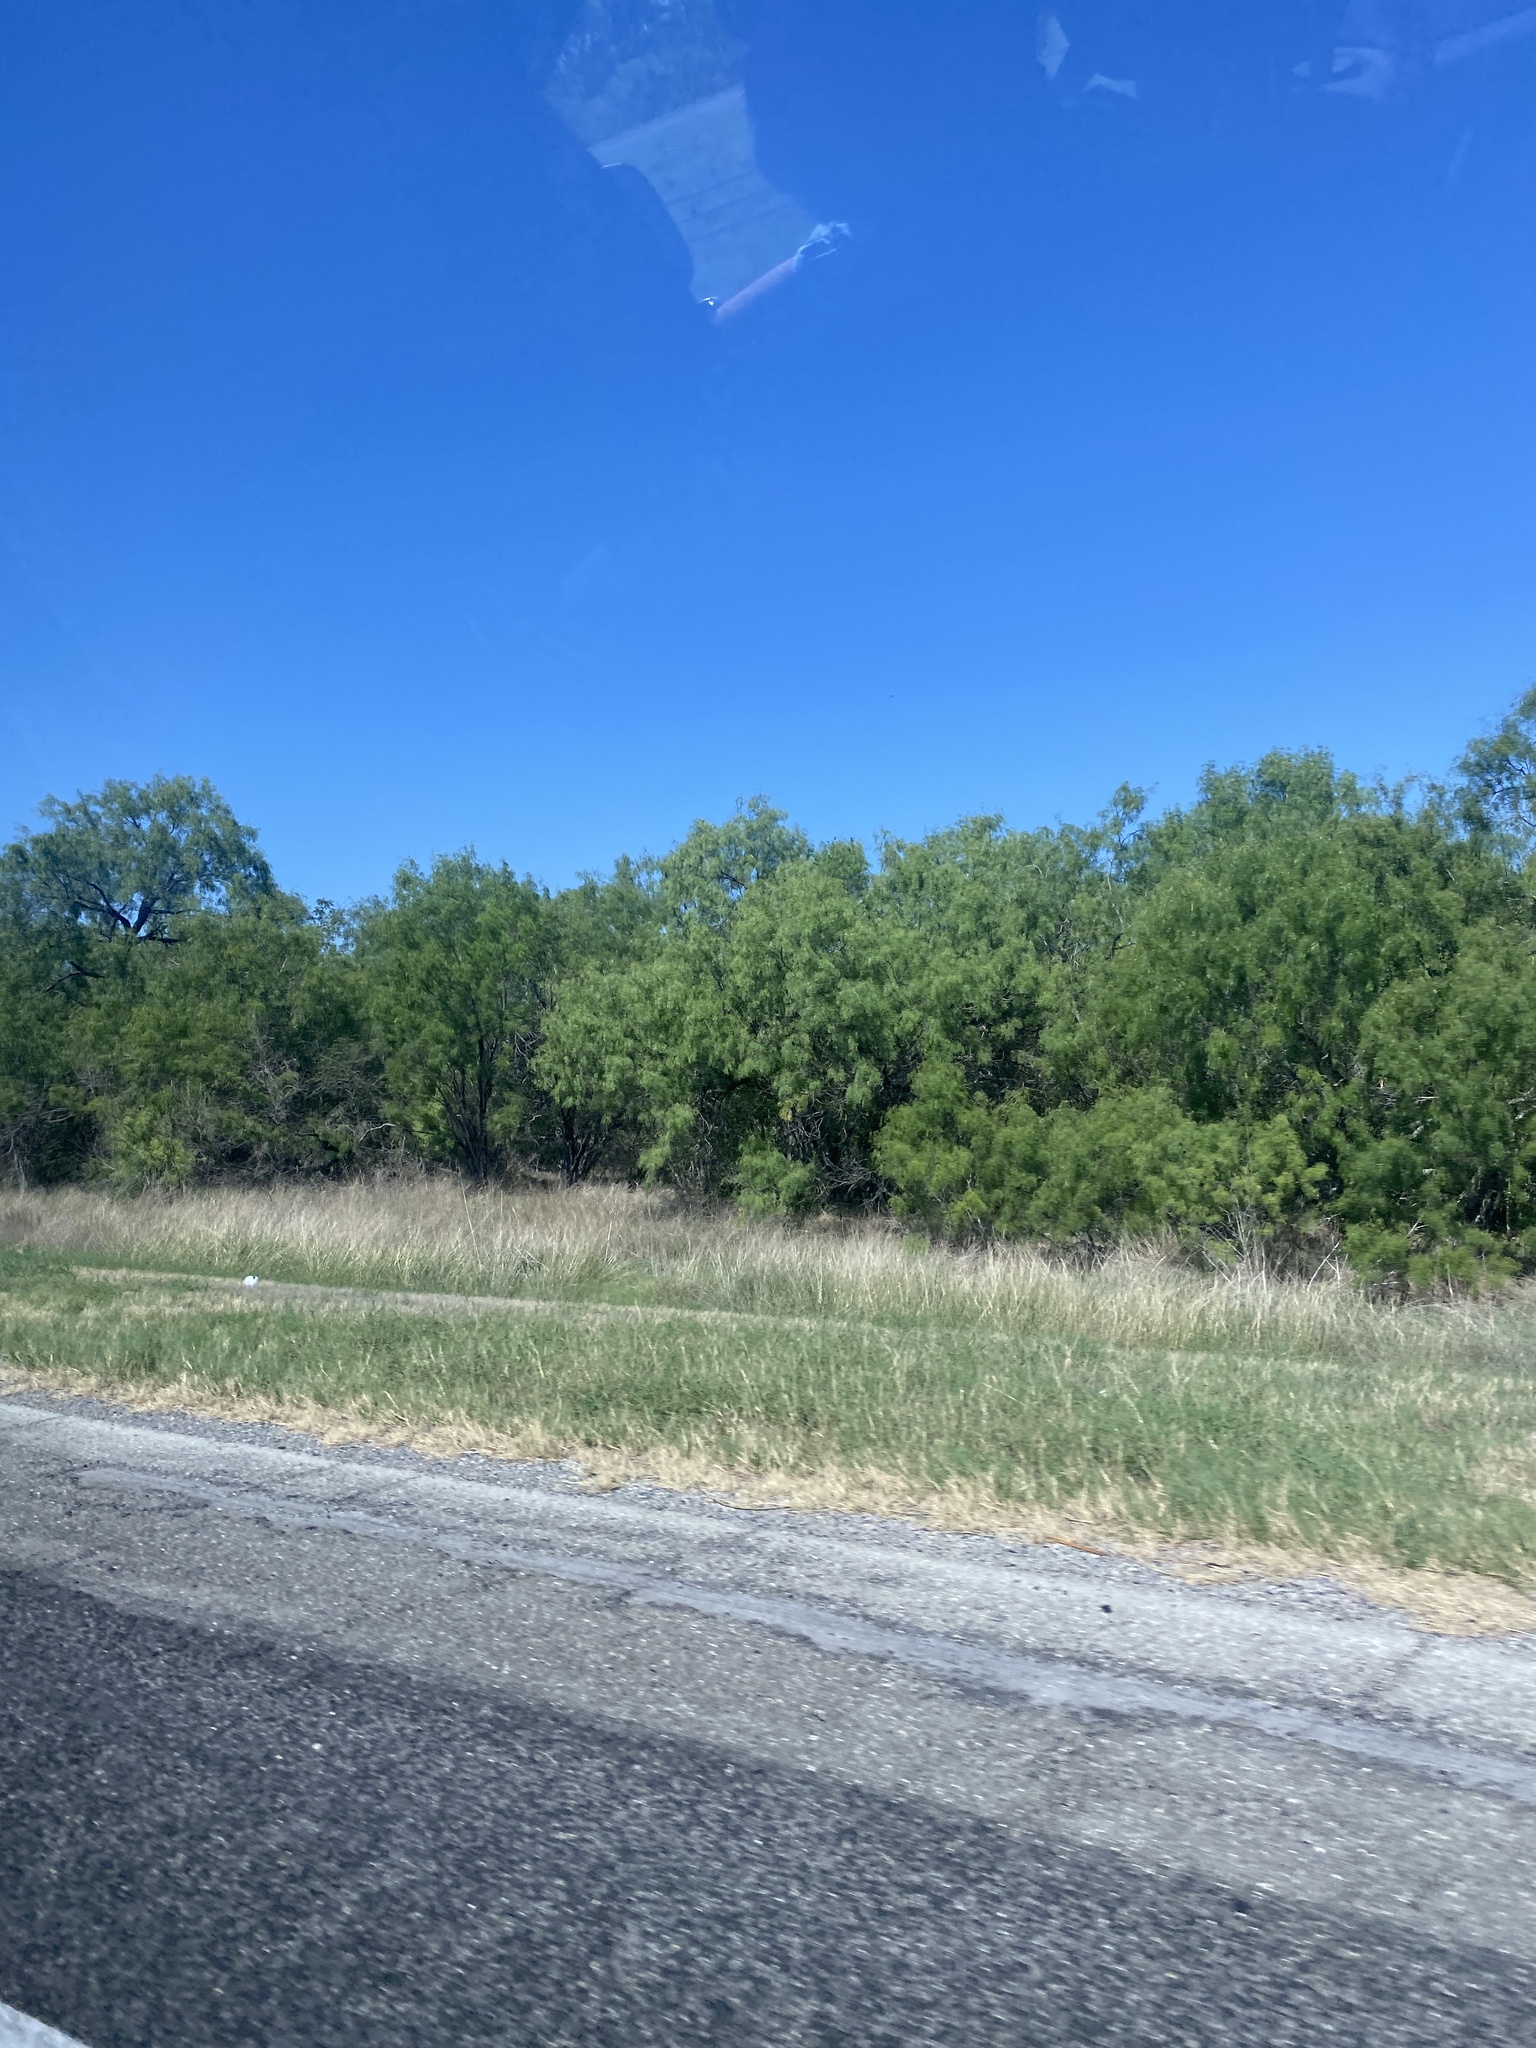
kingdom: Plantae
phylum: Tracheophyta
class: Magnoliopsida
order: Fabales
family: Fabaceae
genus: Prosopis
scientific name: Prosopis glandulosa
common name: Honey mesquite
